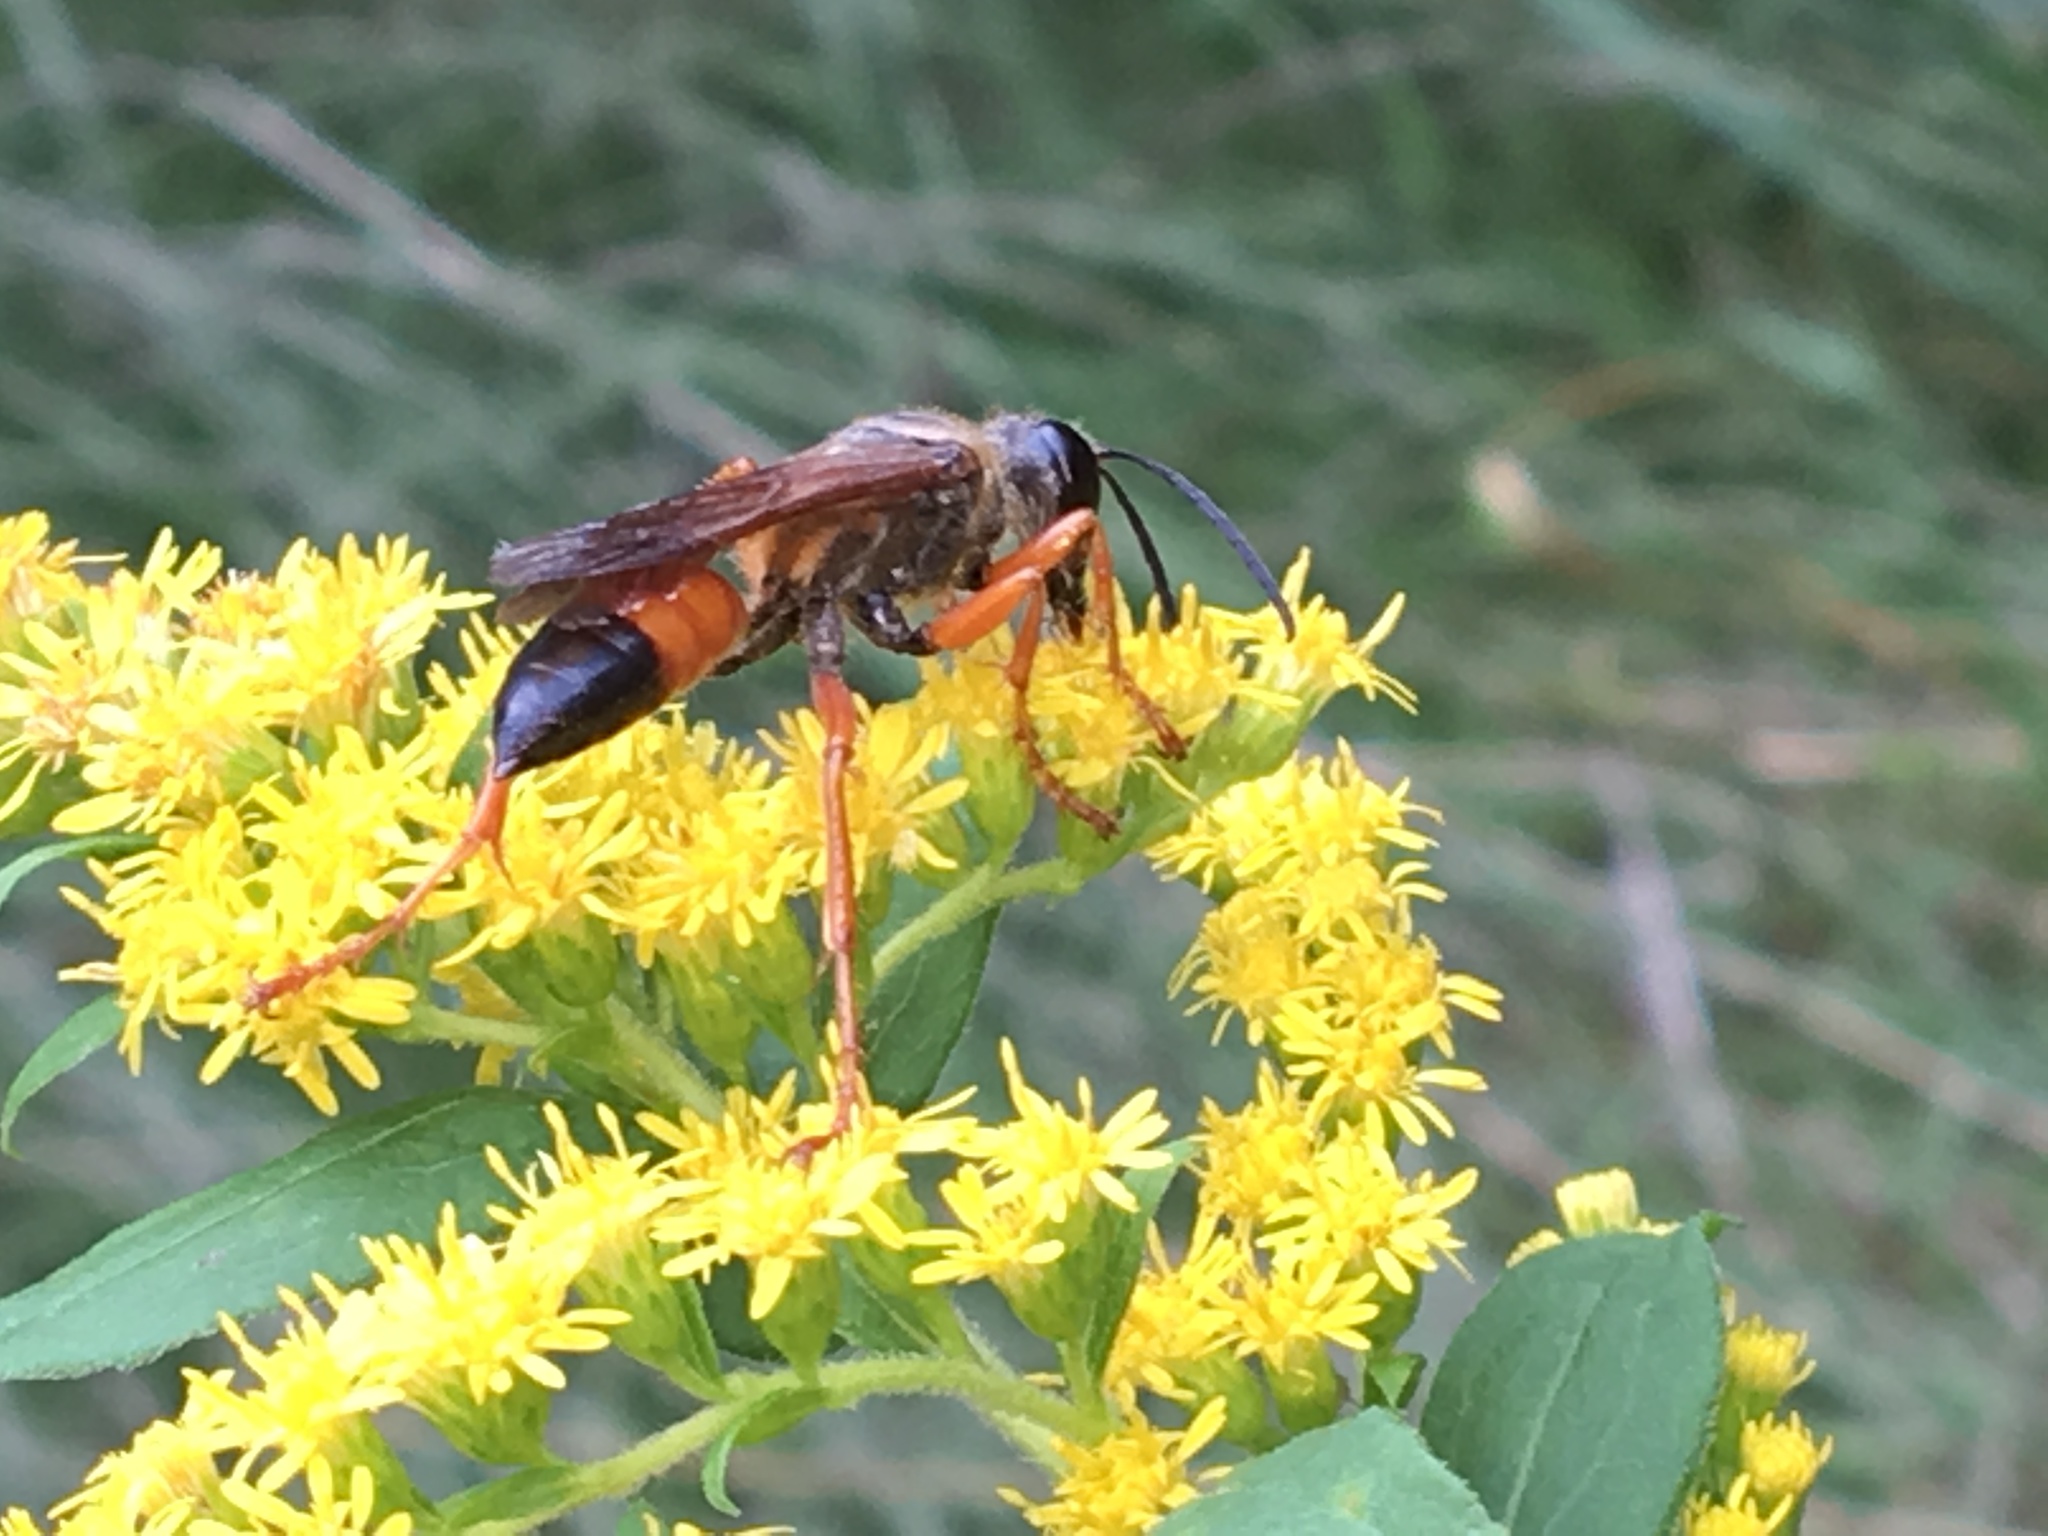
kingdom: Animalia
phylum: Arthropoda
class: Insecta
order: Hymenoptera
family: Sphecidae
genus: Sphex
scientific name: Sphex ichneumoneus
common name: Great golden digger wasp
